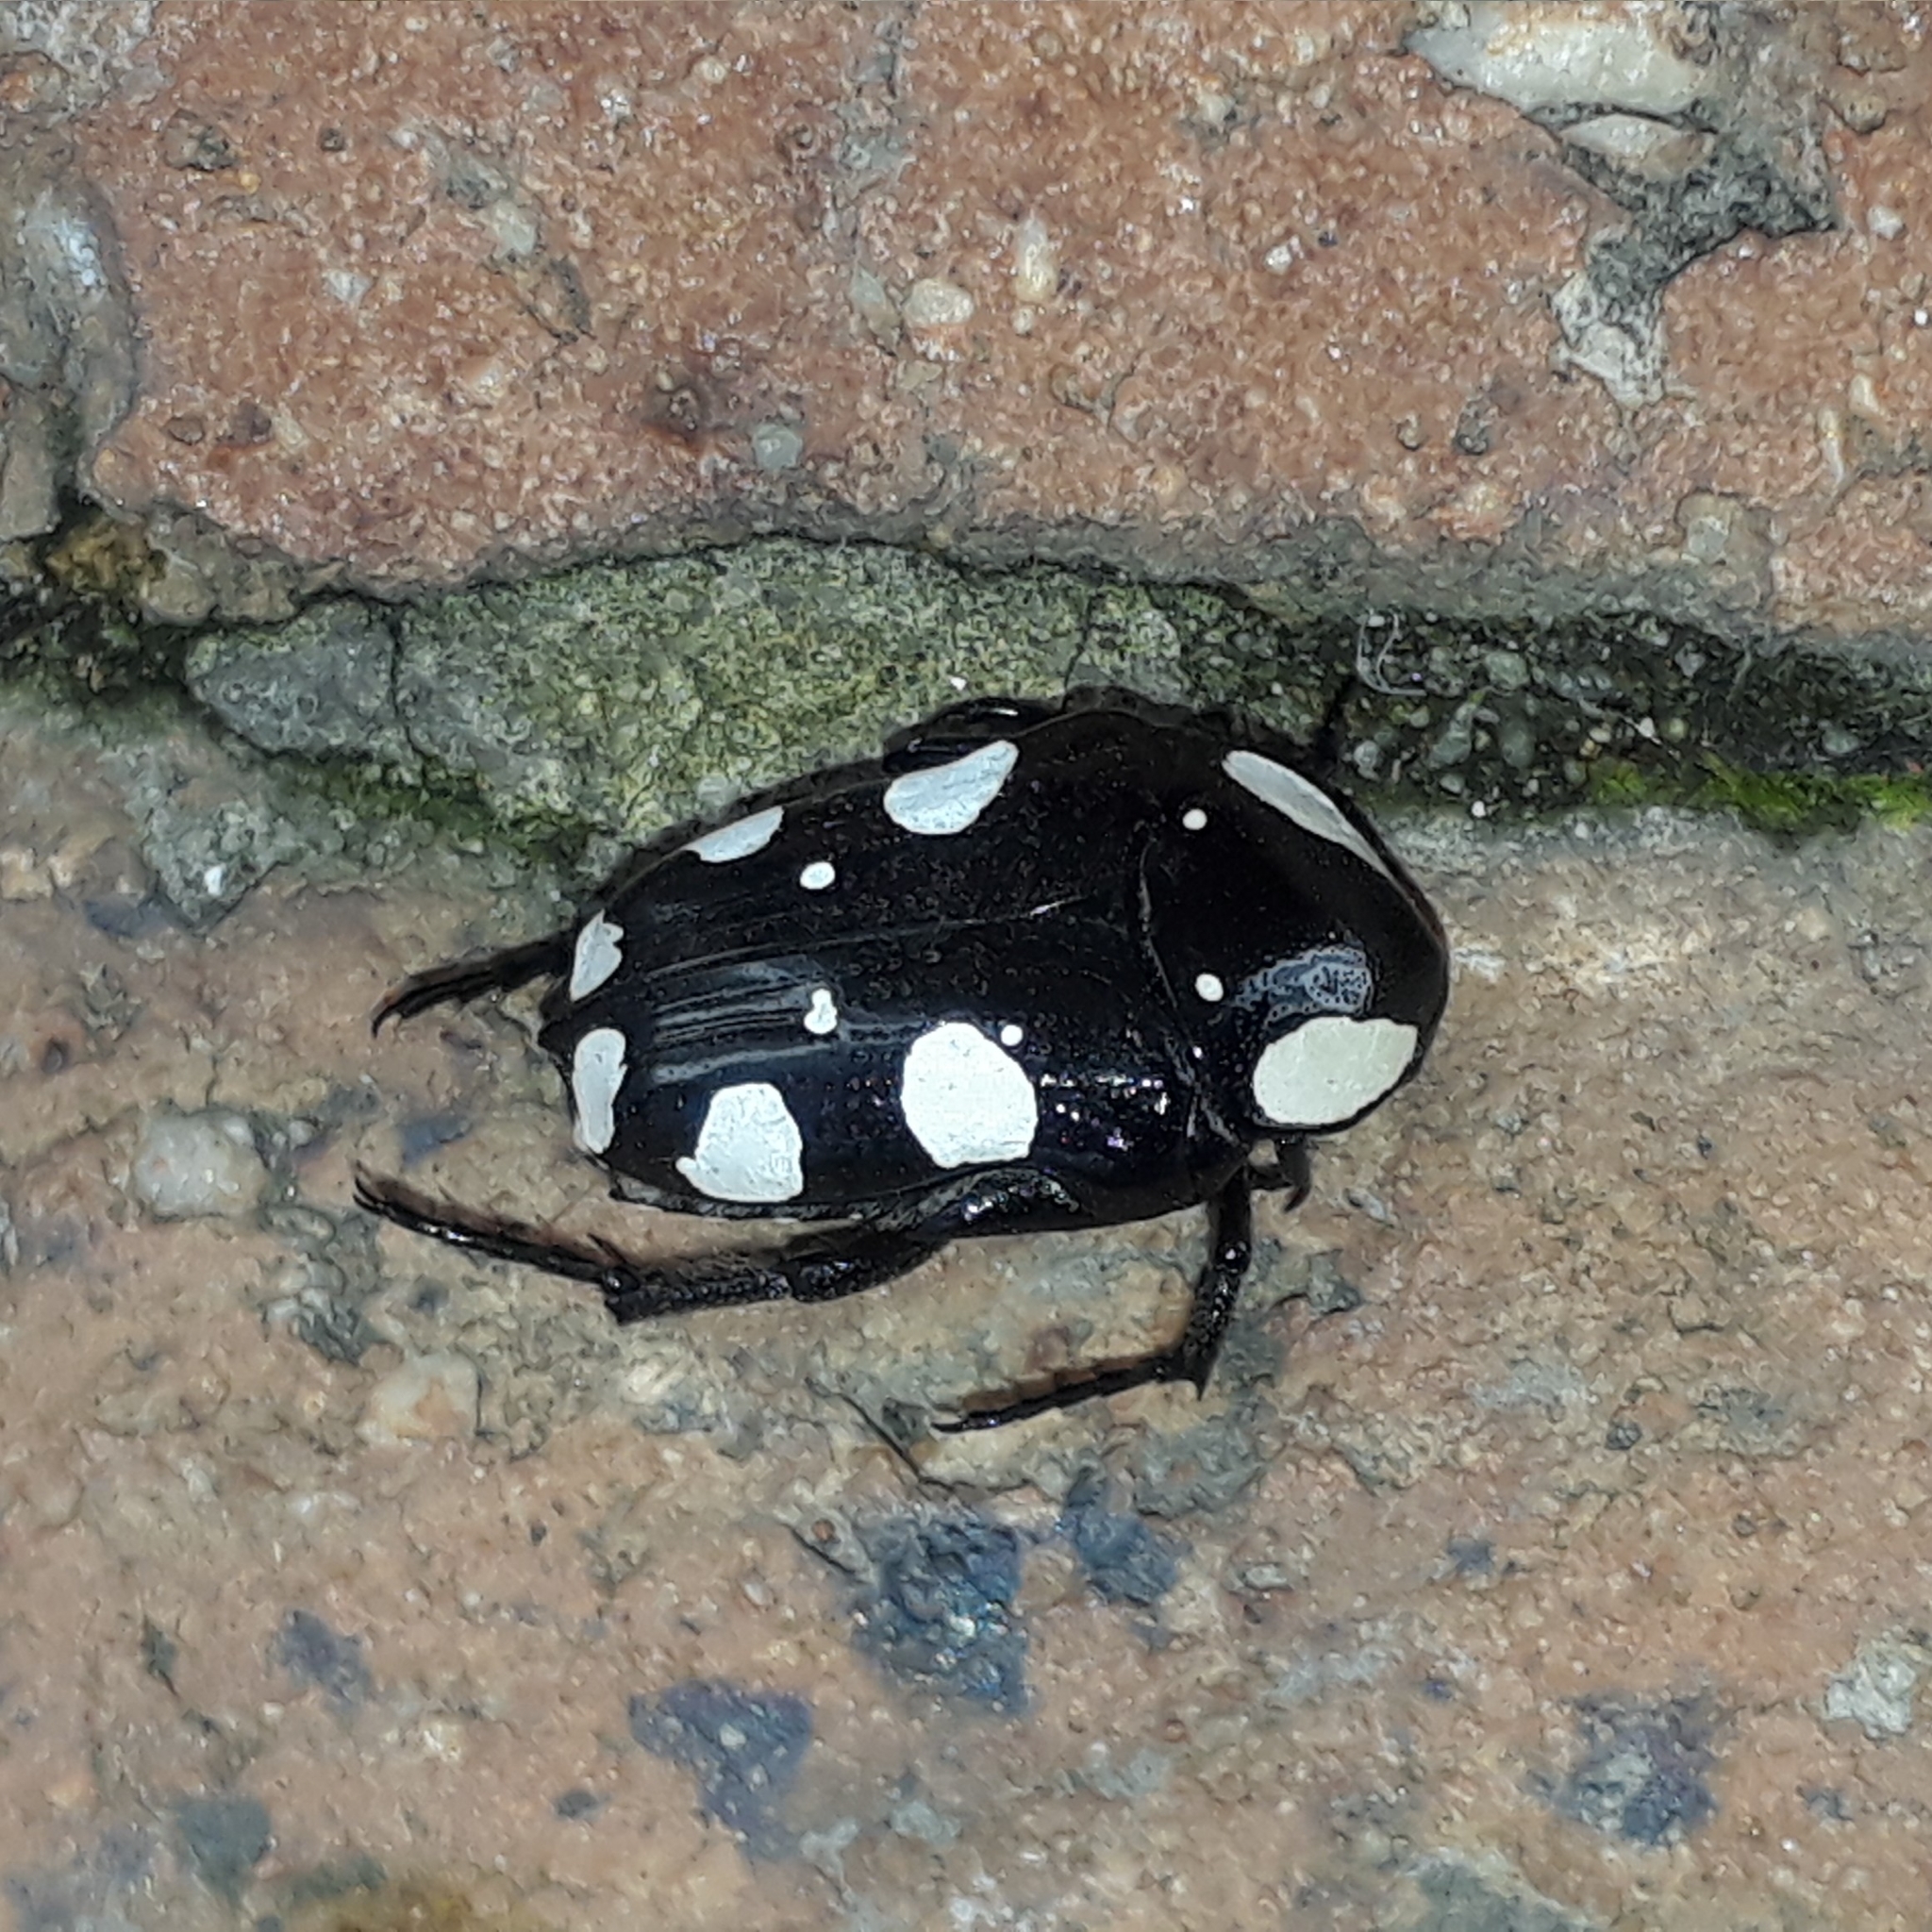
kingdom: Animalia
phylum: Arthropoda
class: Insecta
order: Coleoptera
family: Scarabaeidae
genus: Mausoleopsis
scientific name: Mausoleopsis amabilis
